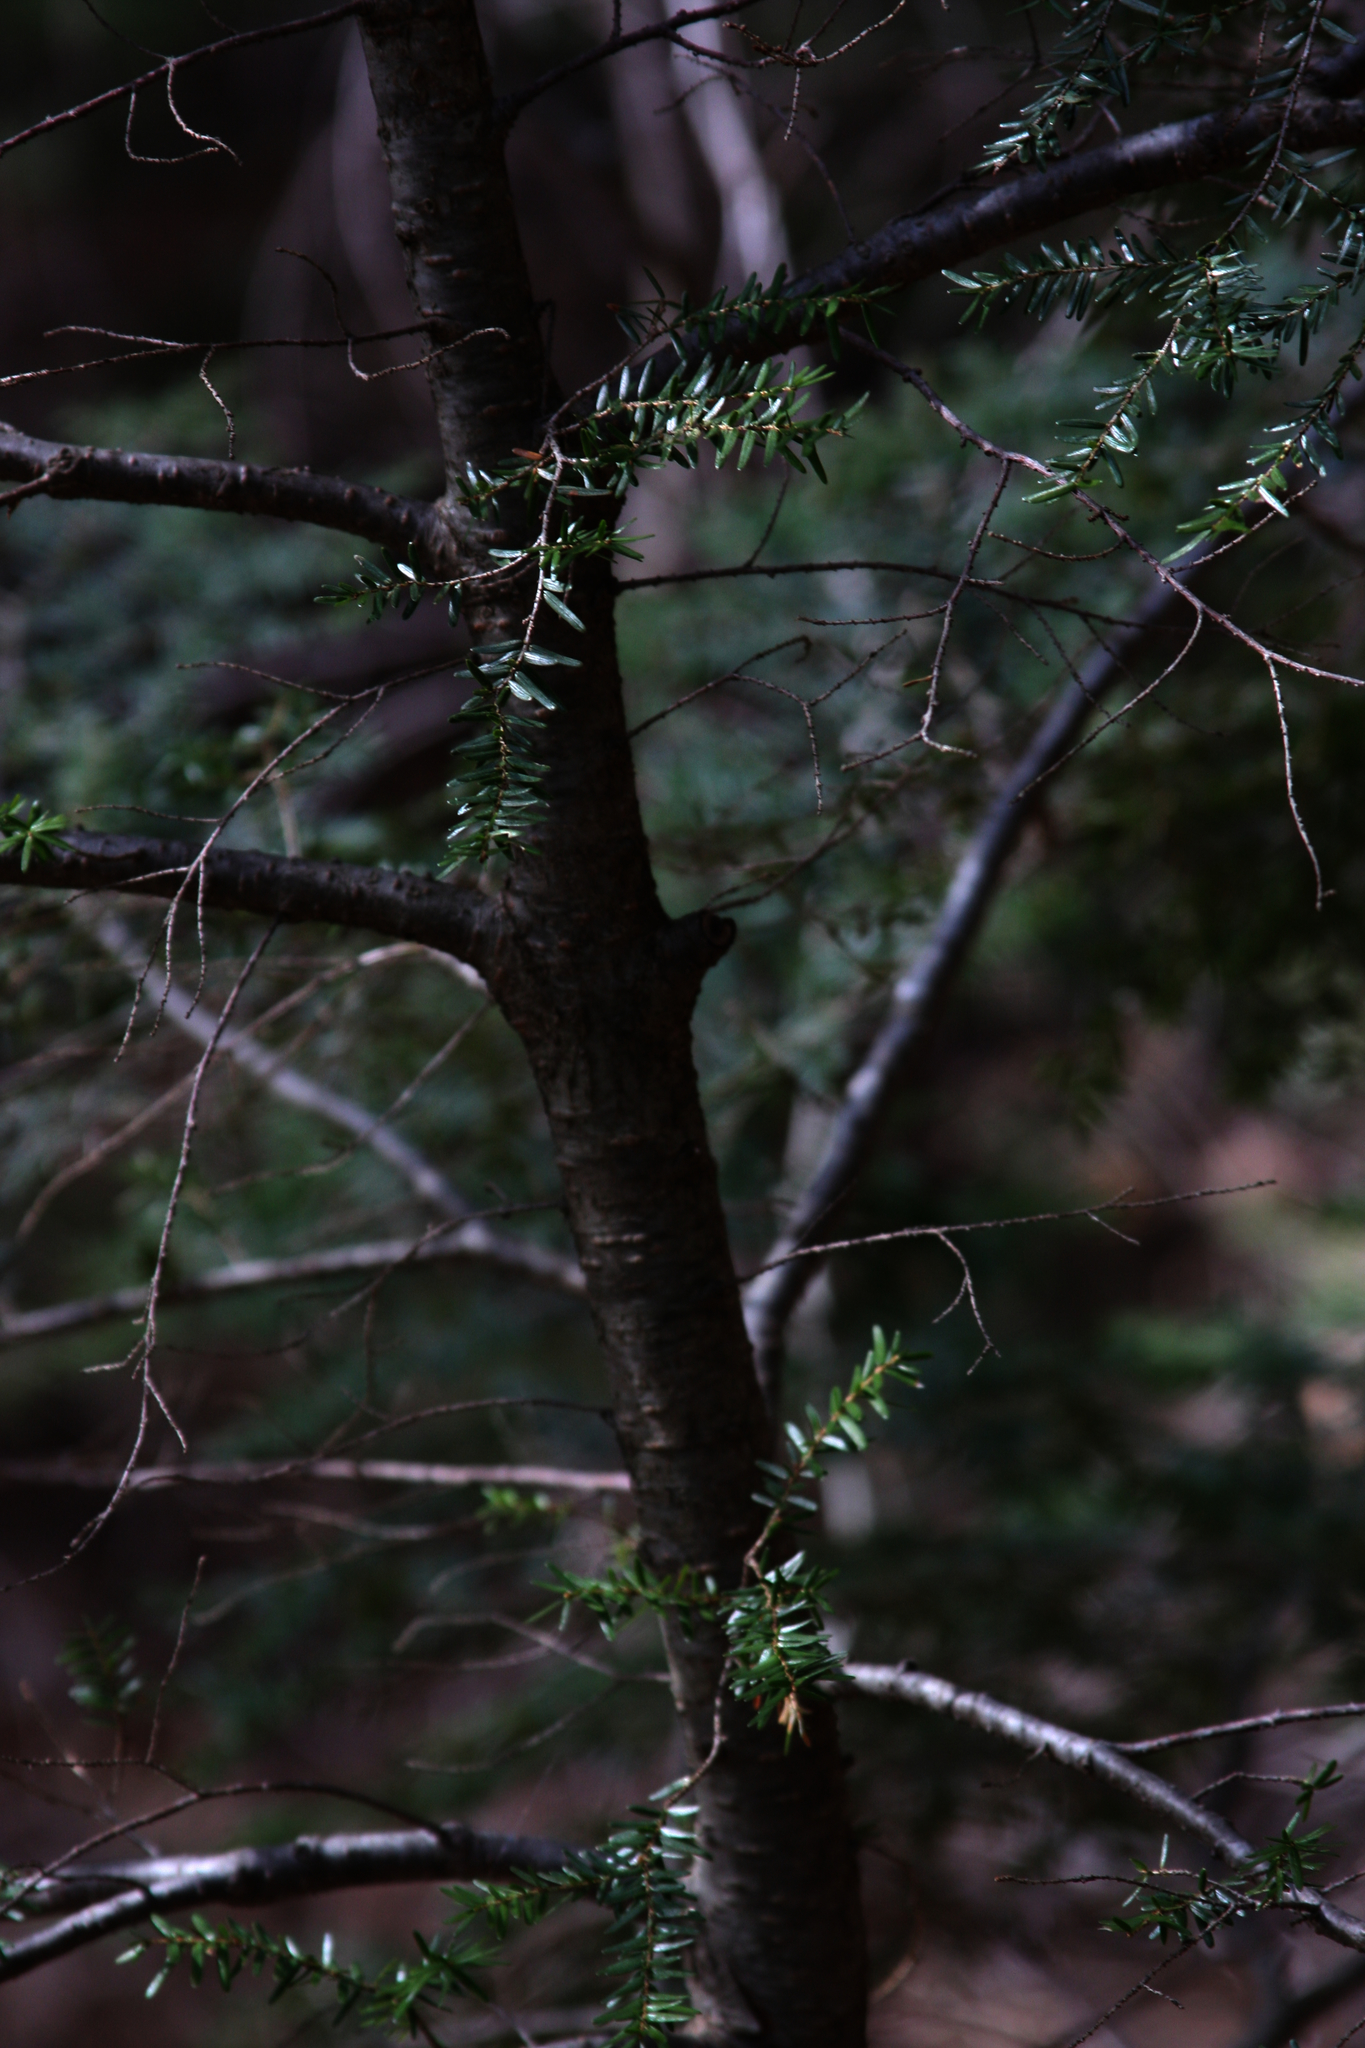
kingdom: Plantae
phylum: Tracheophyta
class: Pinopsida
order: Pinales
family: Pinaceae
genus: Tsuga
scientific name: Tsuga canadensis
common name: Eastern hemlock
